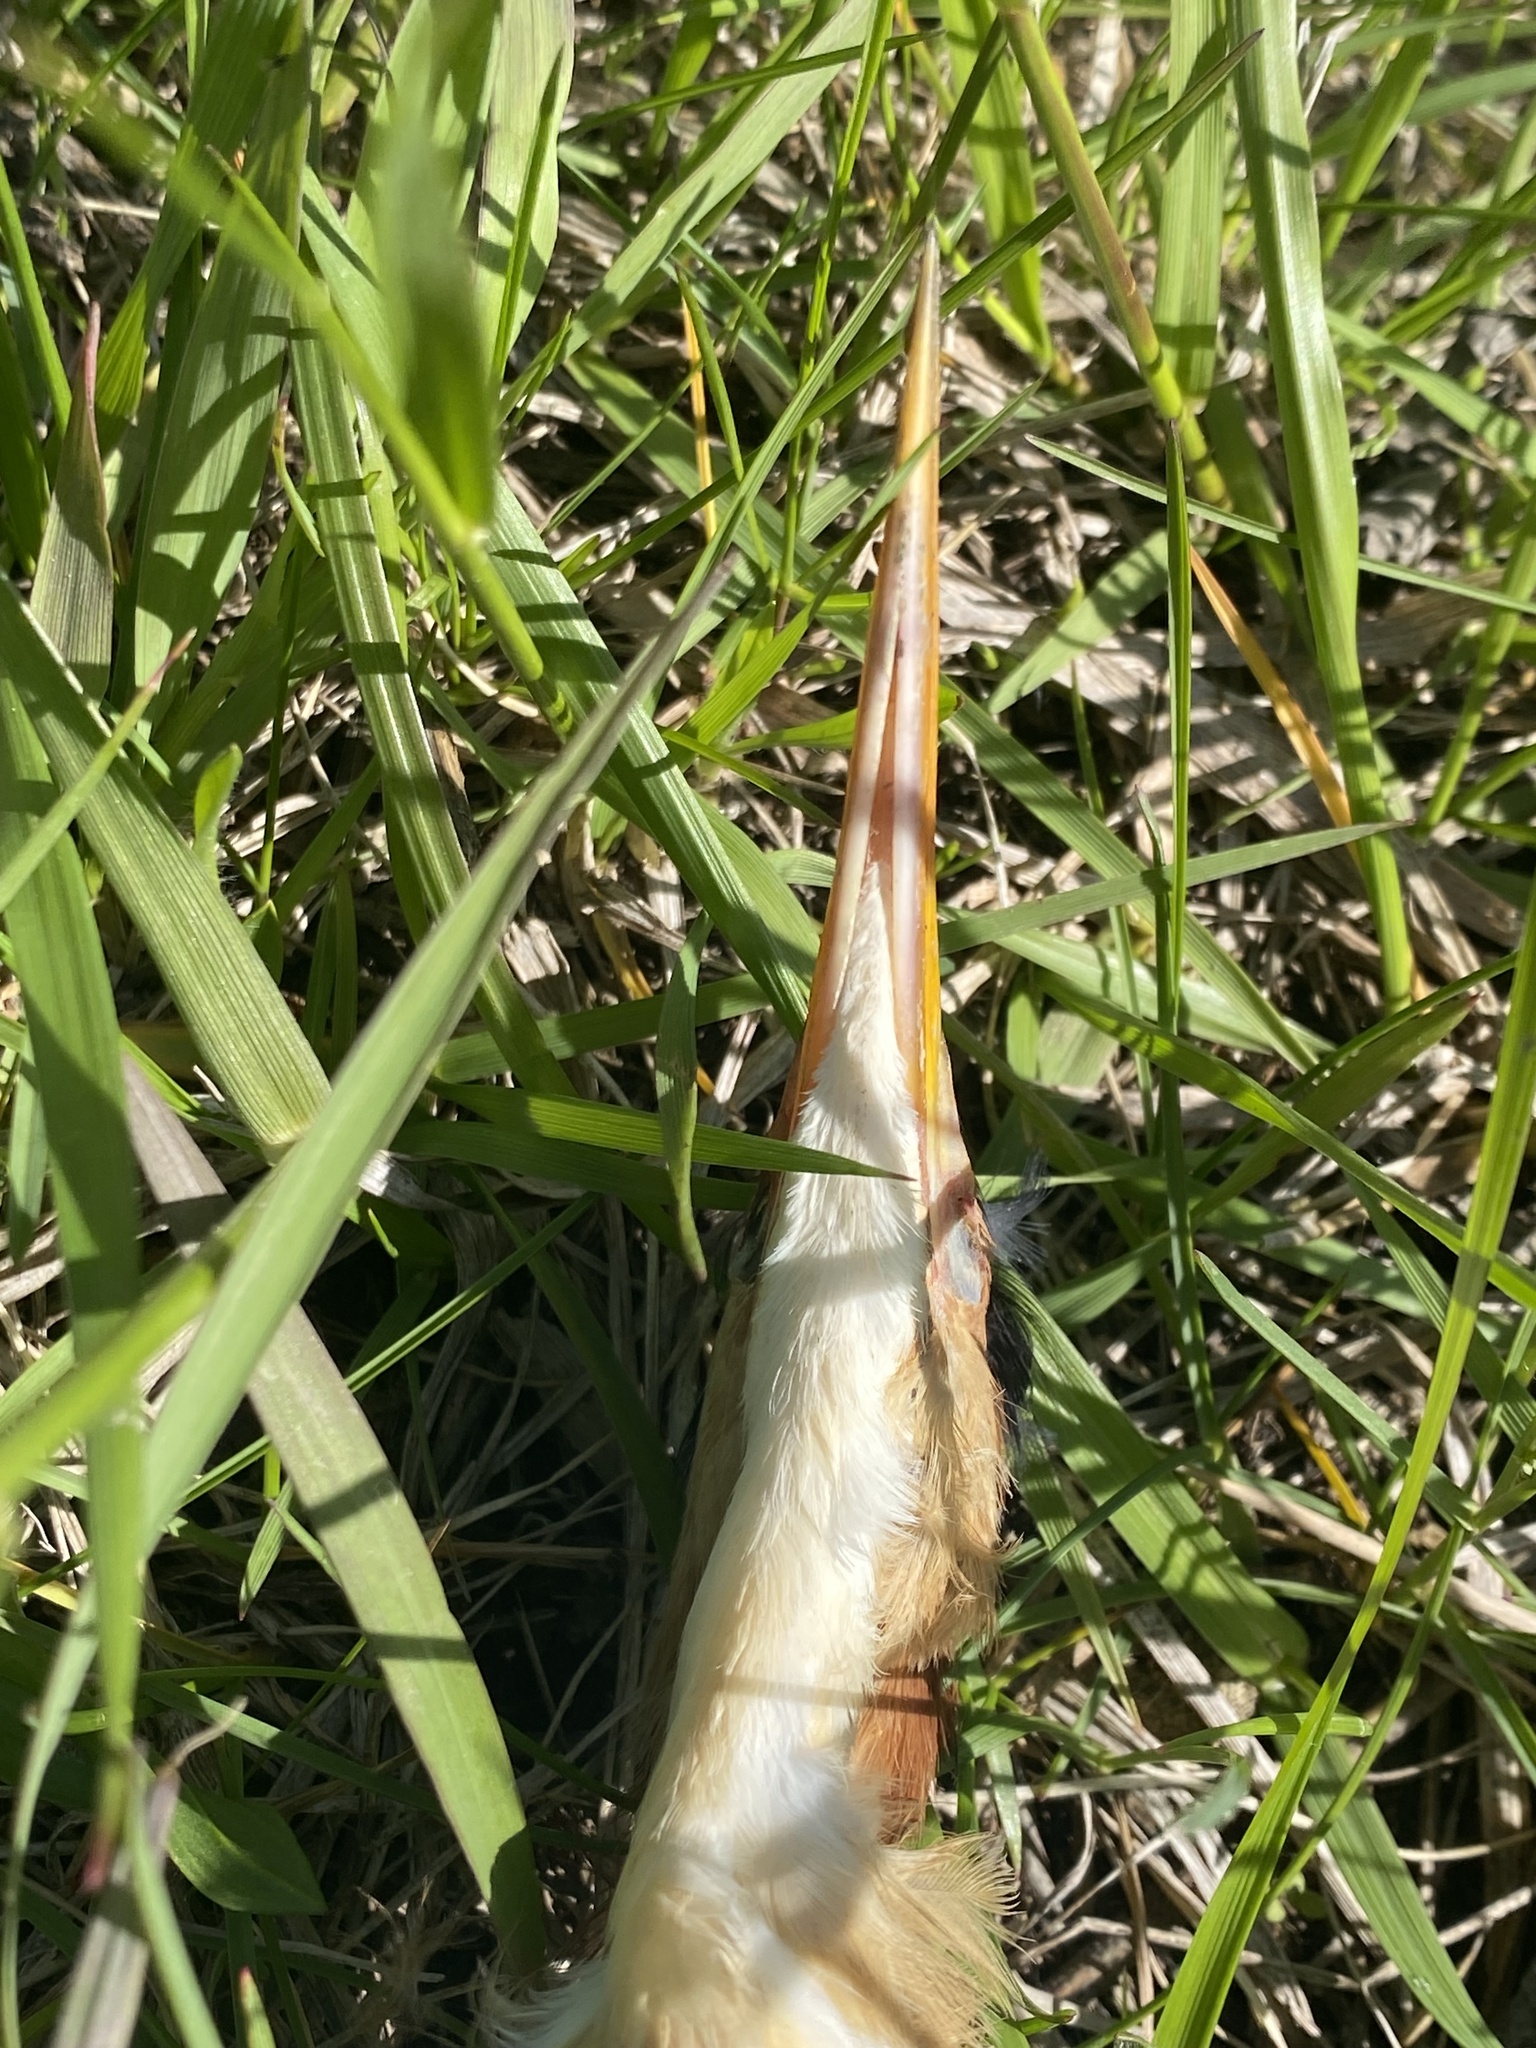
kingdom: Animalia
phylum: Chordata
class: Aves
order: Pelecaniformes
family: Ardeidae
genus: Ixobrychus
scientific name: Ixobrychus exilis
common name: Least bittern
